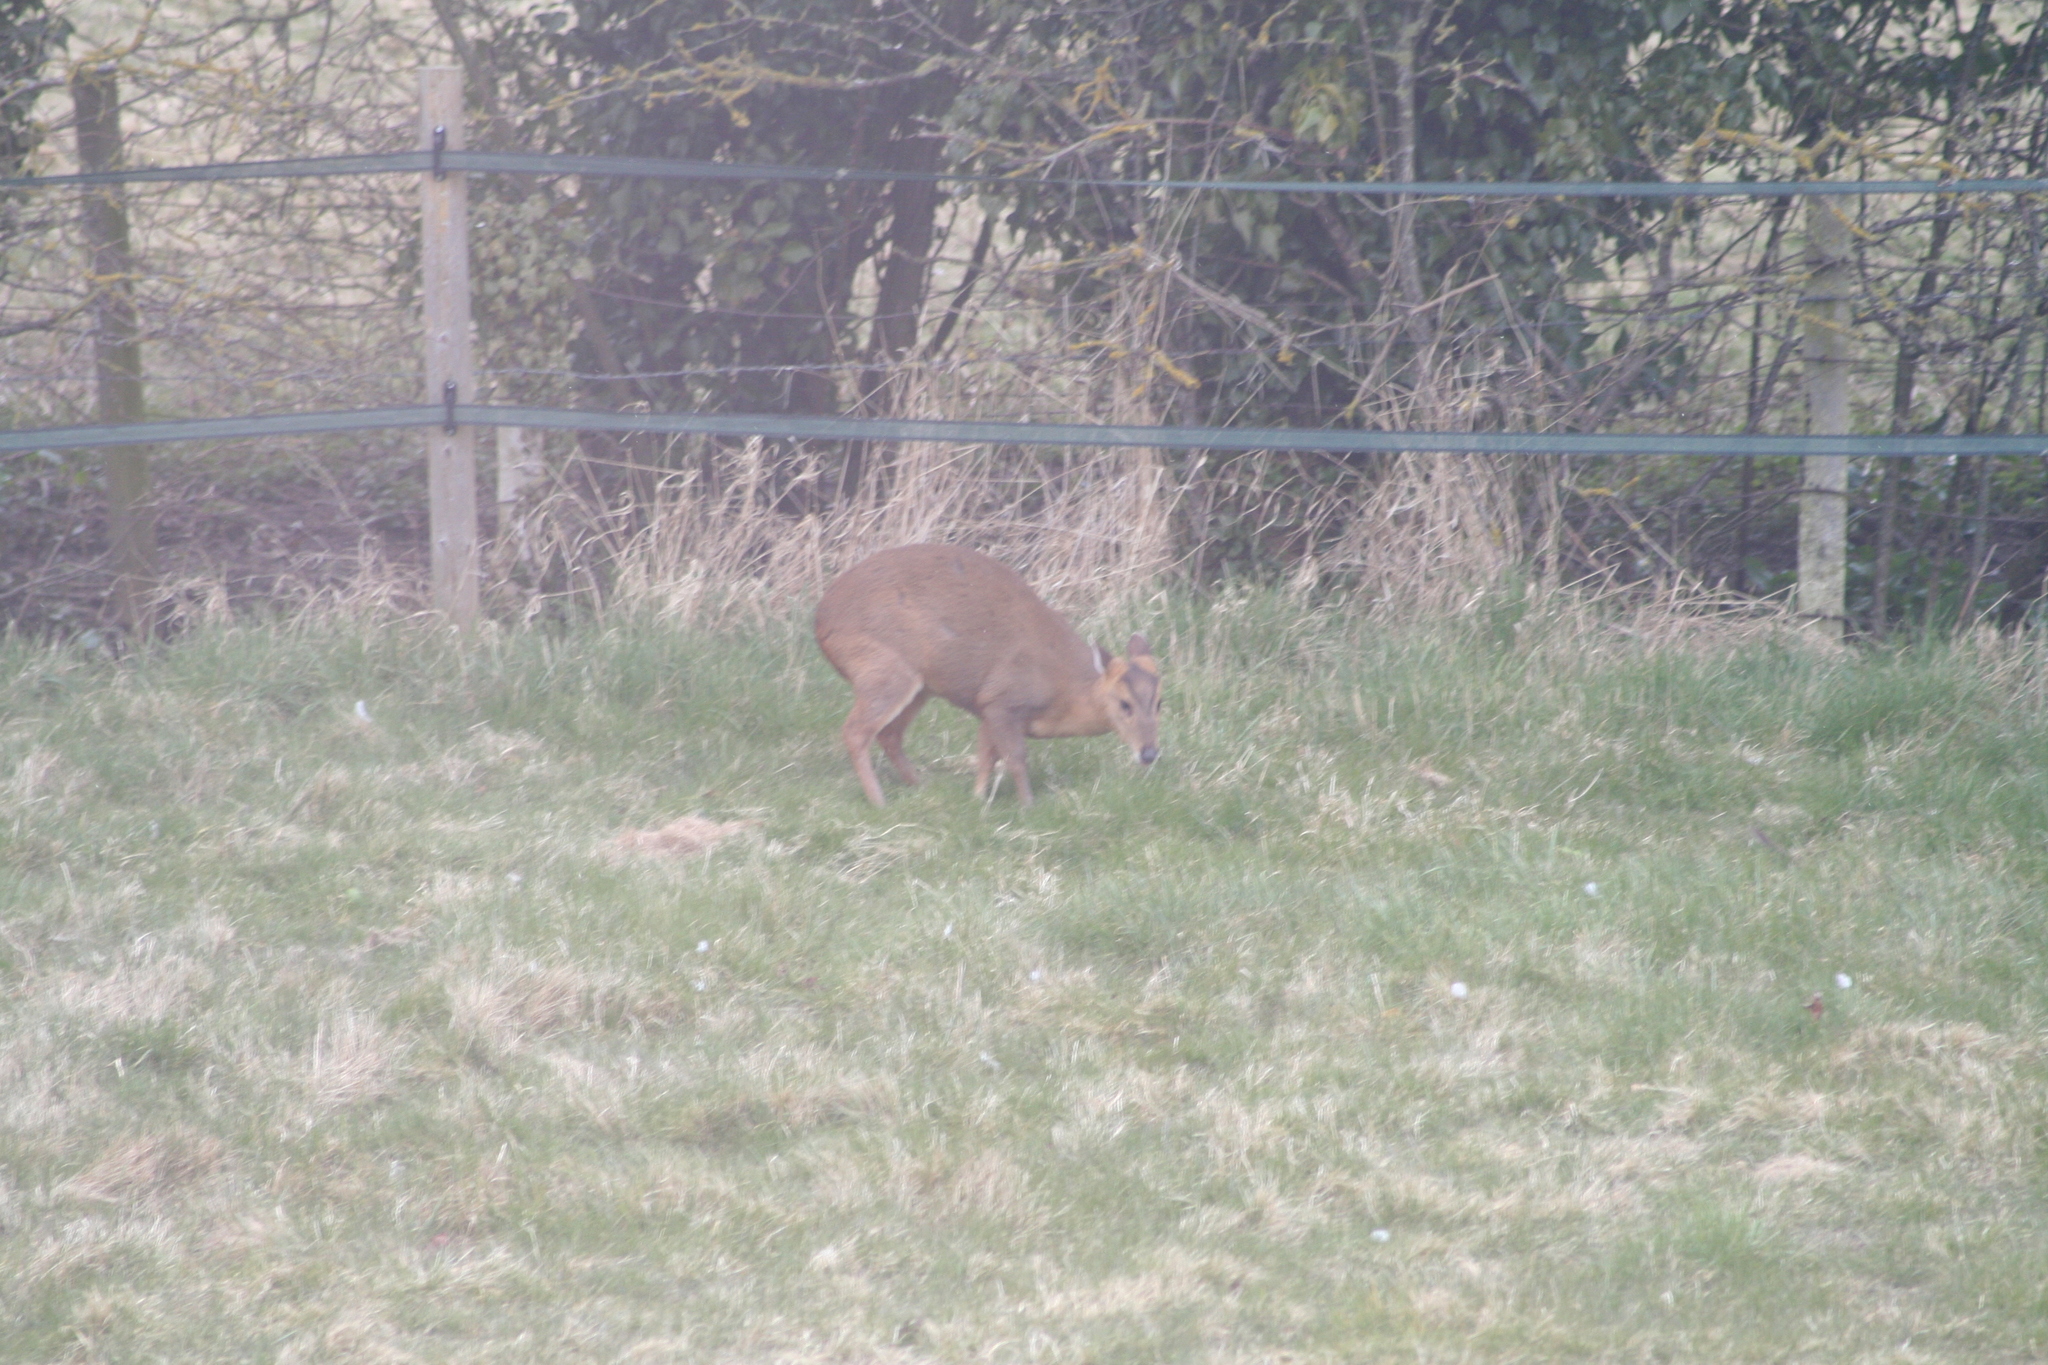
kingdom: Animalia
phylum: Chordata
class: Mammalia
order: Artiodactyla
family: Cervidae
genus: Muntiacus
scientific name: Muntiacus reevesi
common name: Reeves' muntjac
